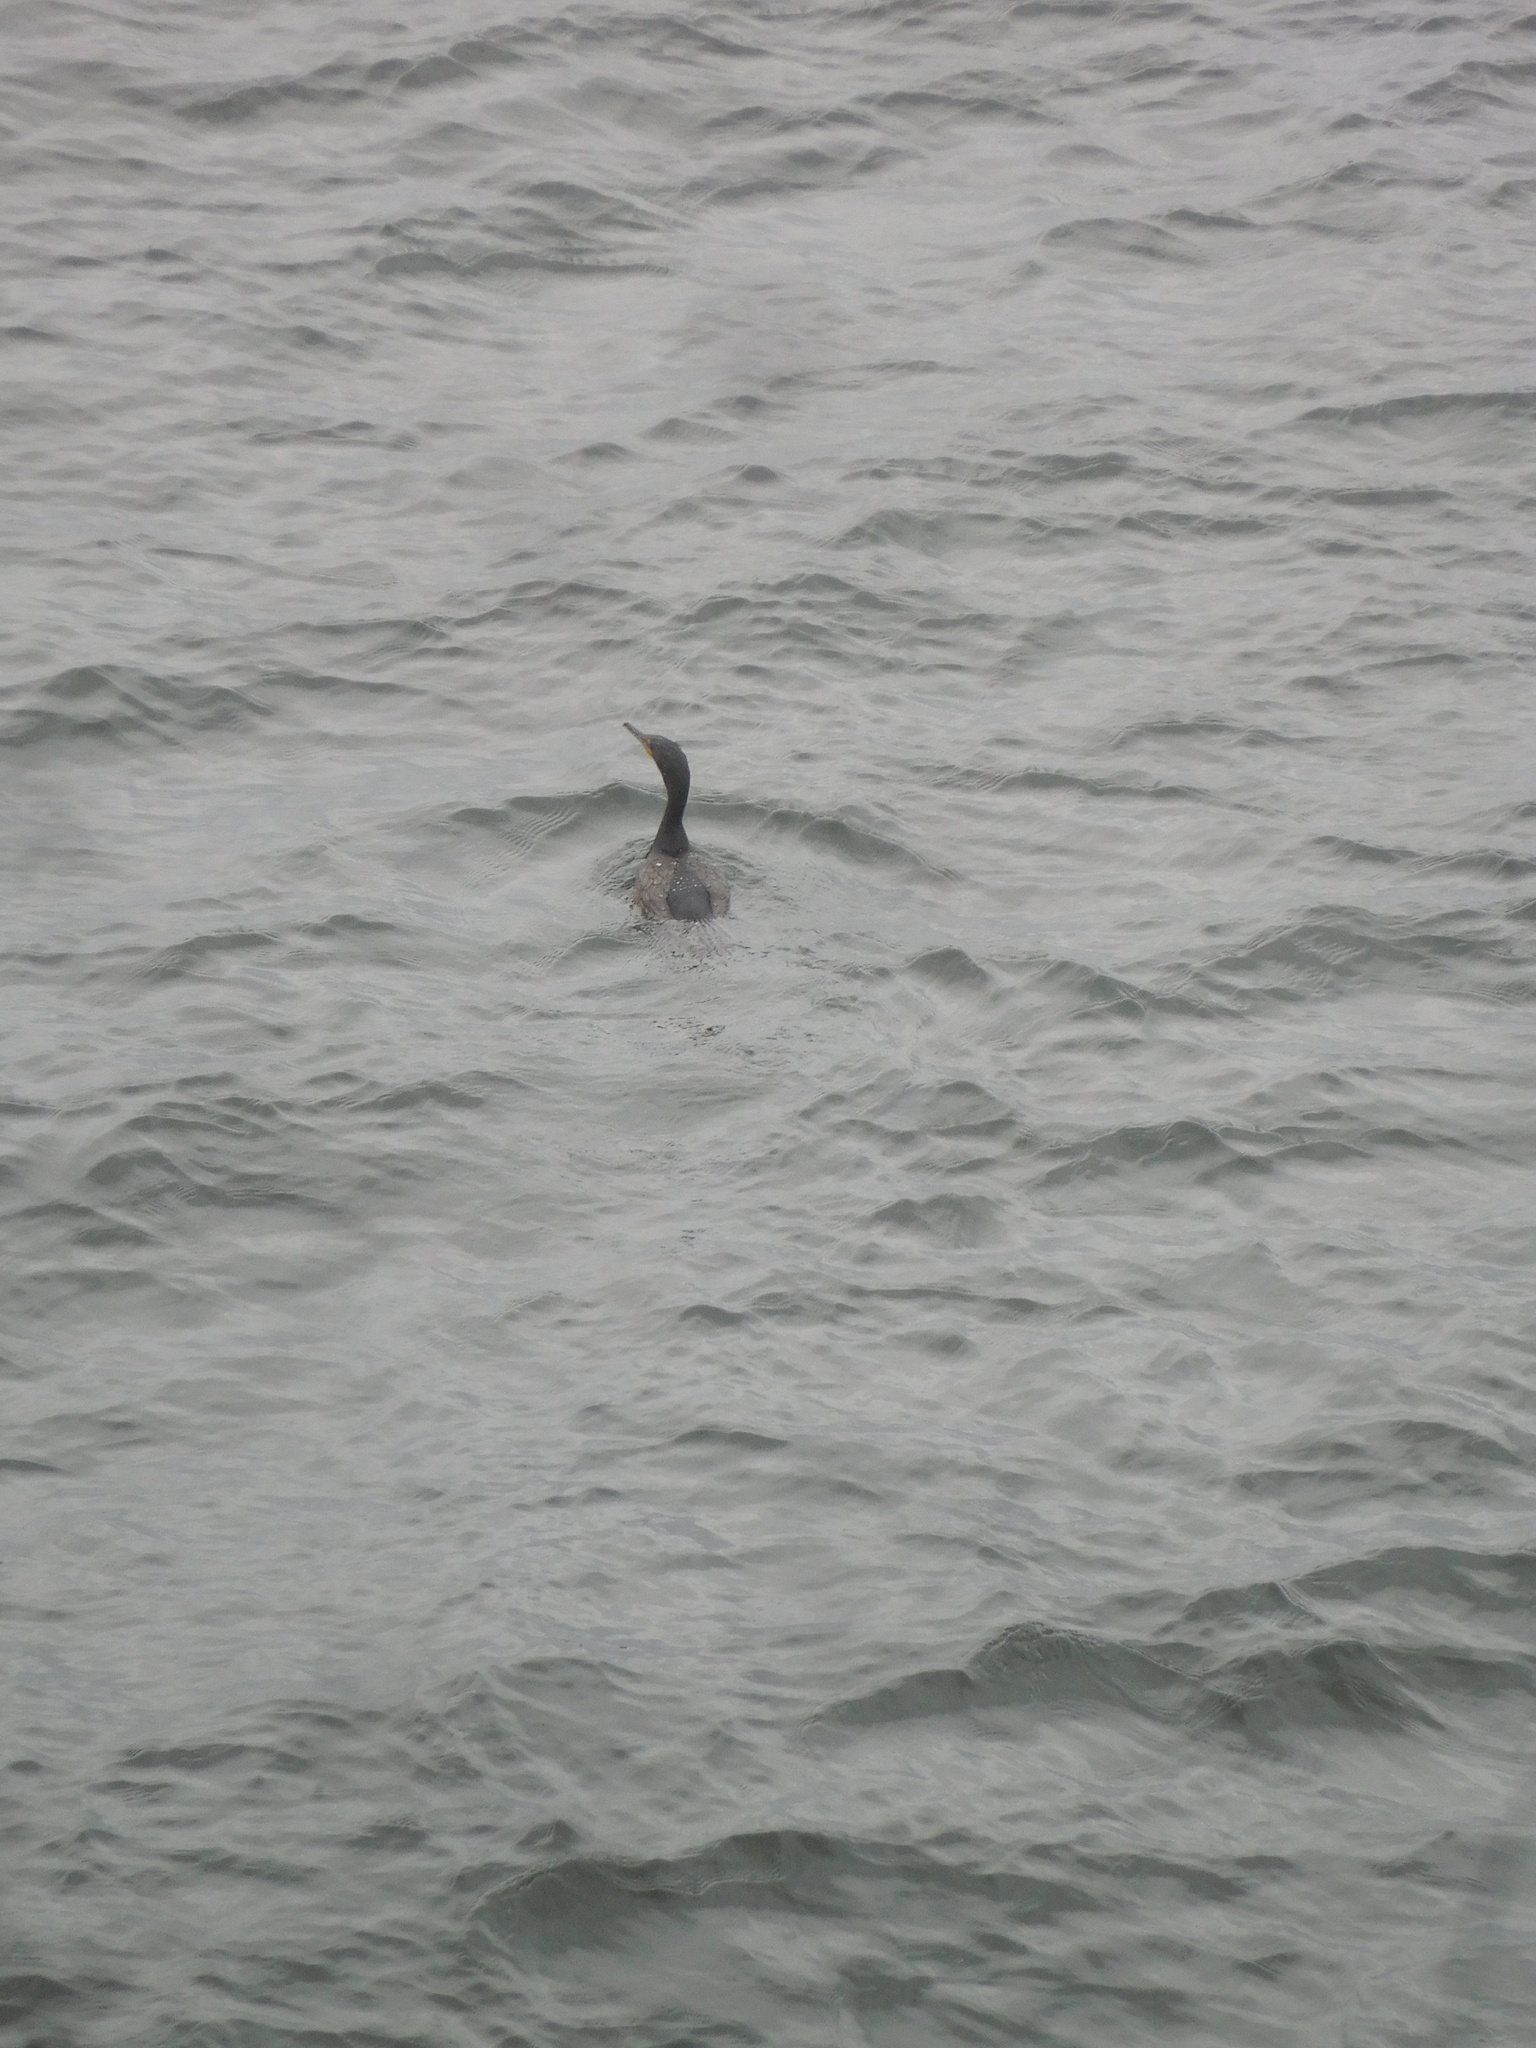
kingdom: Animalia
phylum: Chordata
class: Aves
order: Suliformes
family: Phalacrocoracidae
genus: Phalacrocorax
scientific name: Phalacrocorax auritus
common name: Double-crested cormorant
